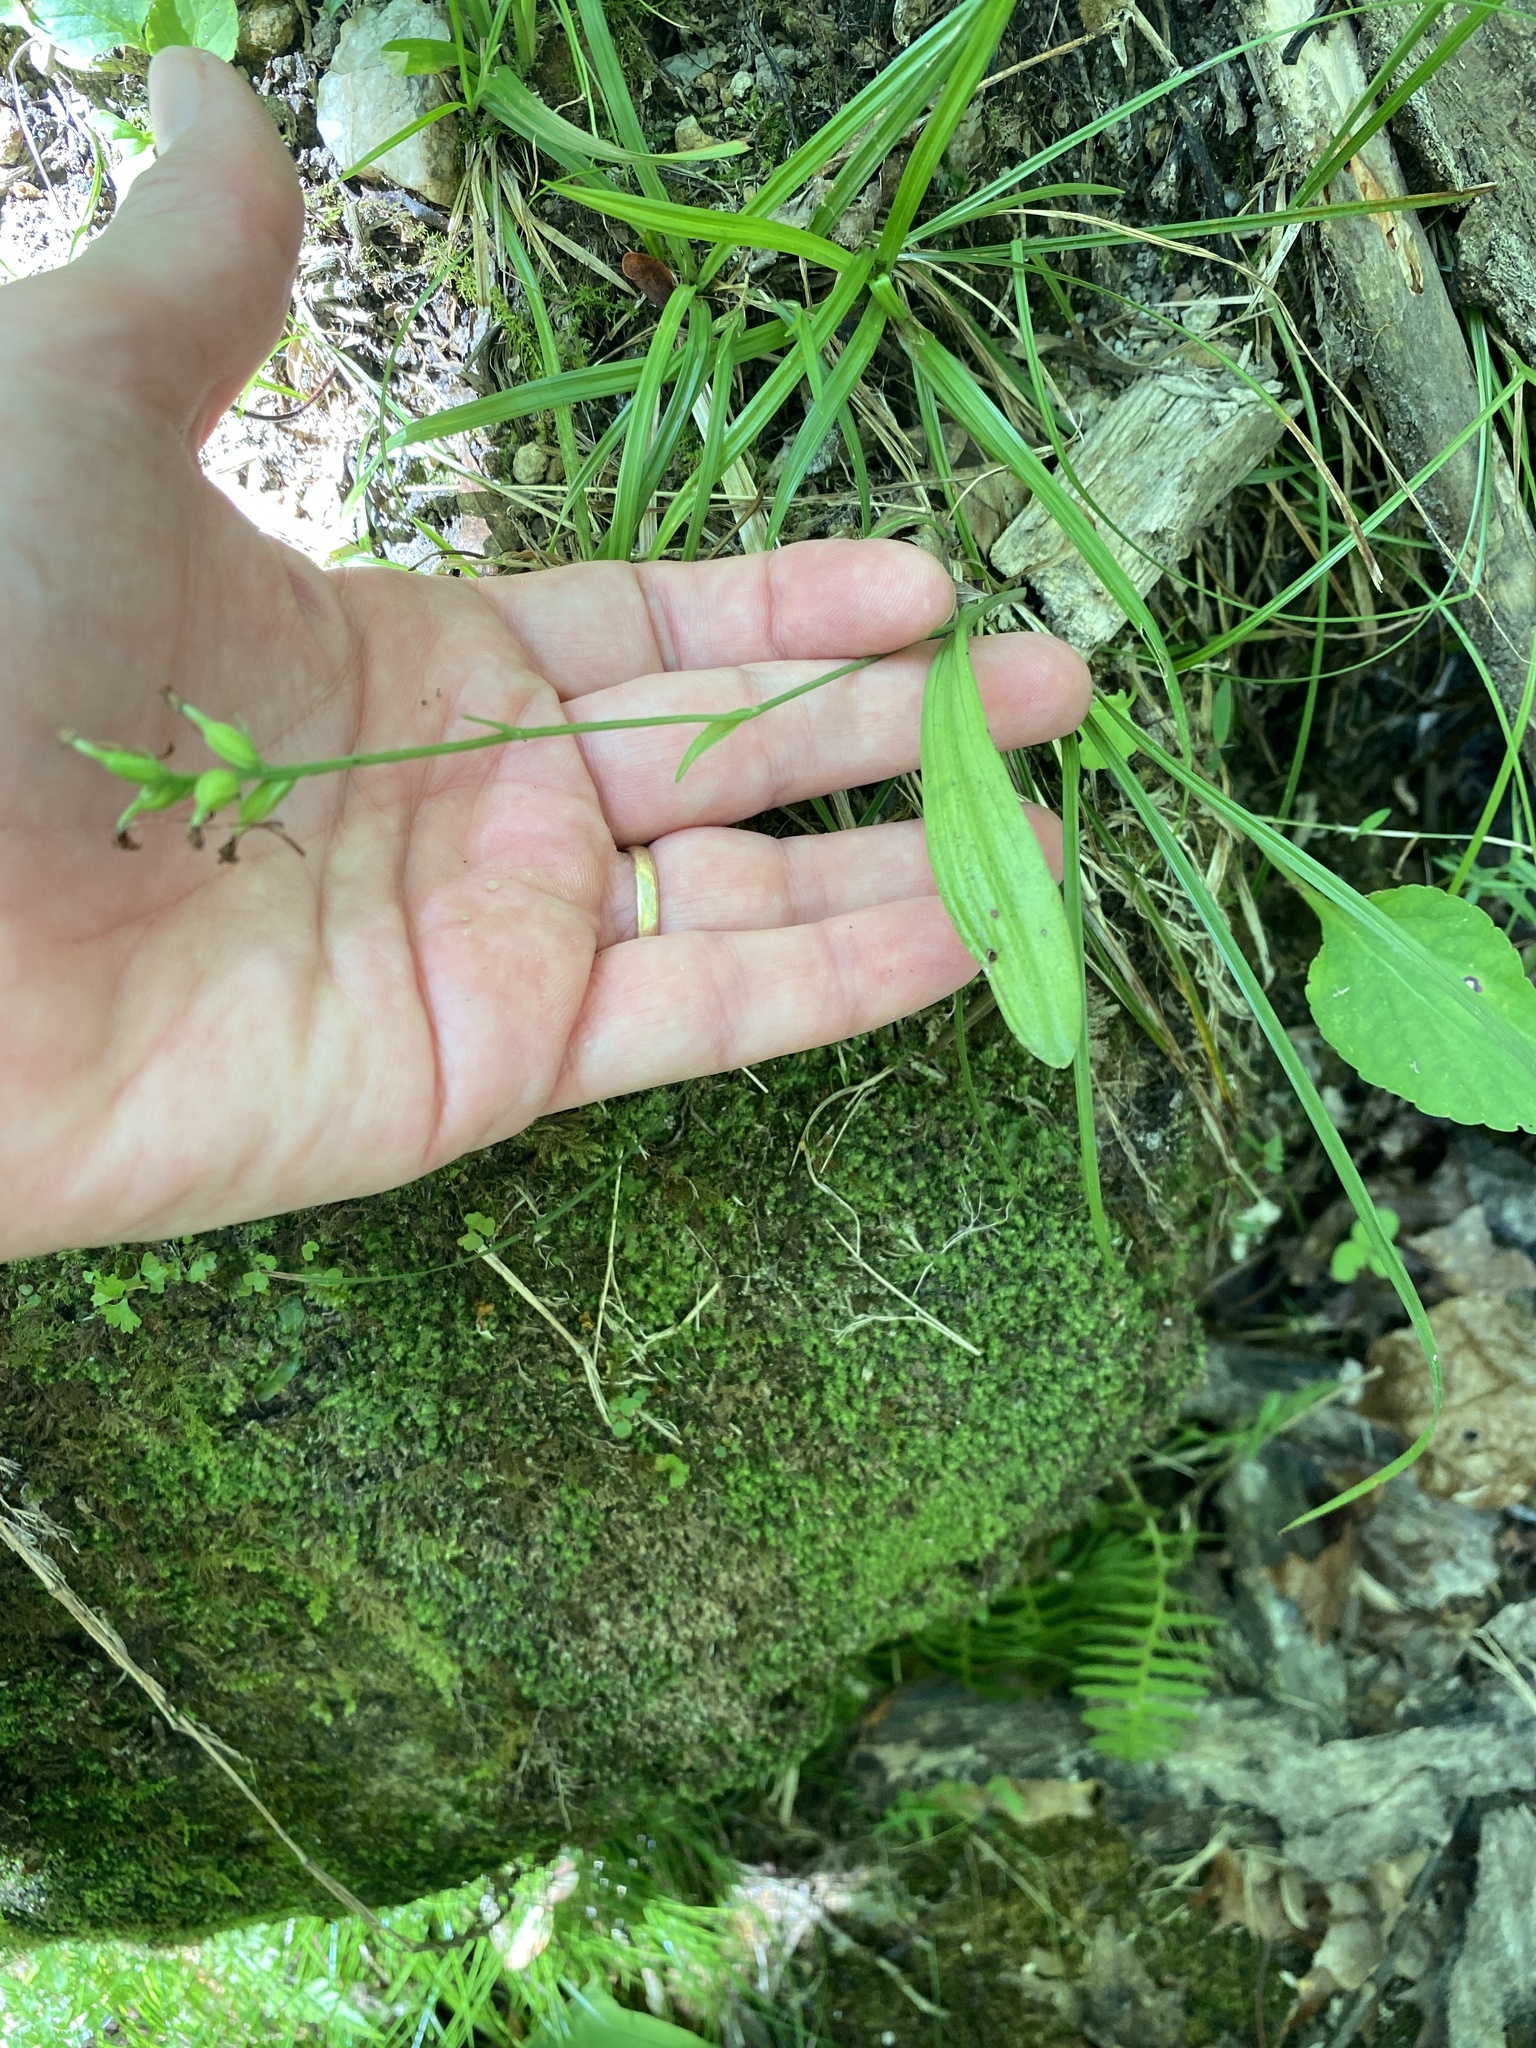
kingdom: Plantae
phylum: Tracheophyta
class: Liliopsida
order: Asparagales
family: Orchidaceae
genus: Platanthera
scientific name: Platanthera clavellata
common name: Club-spur orchid
